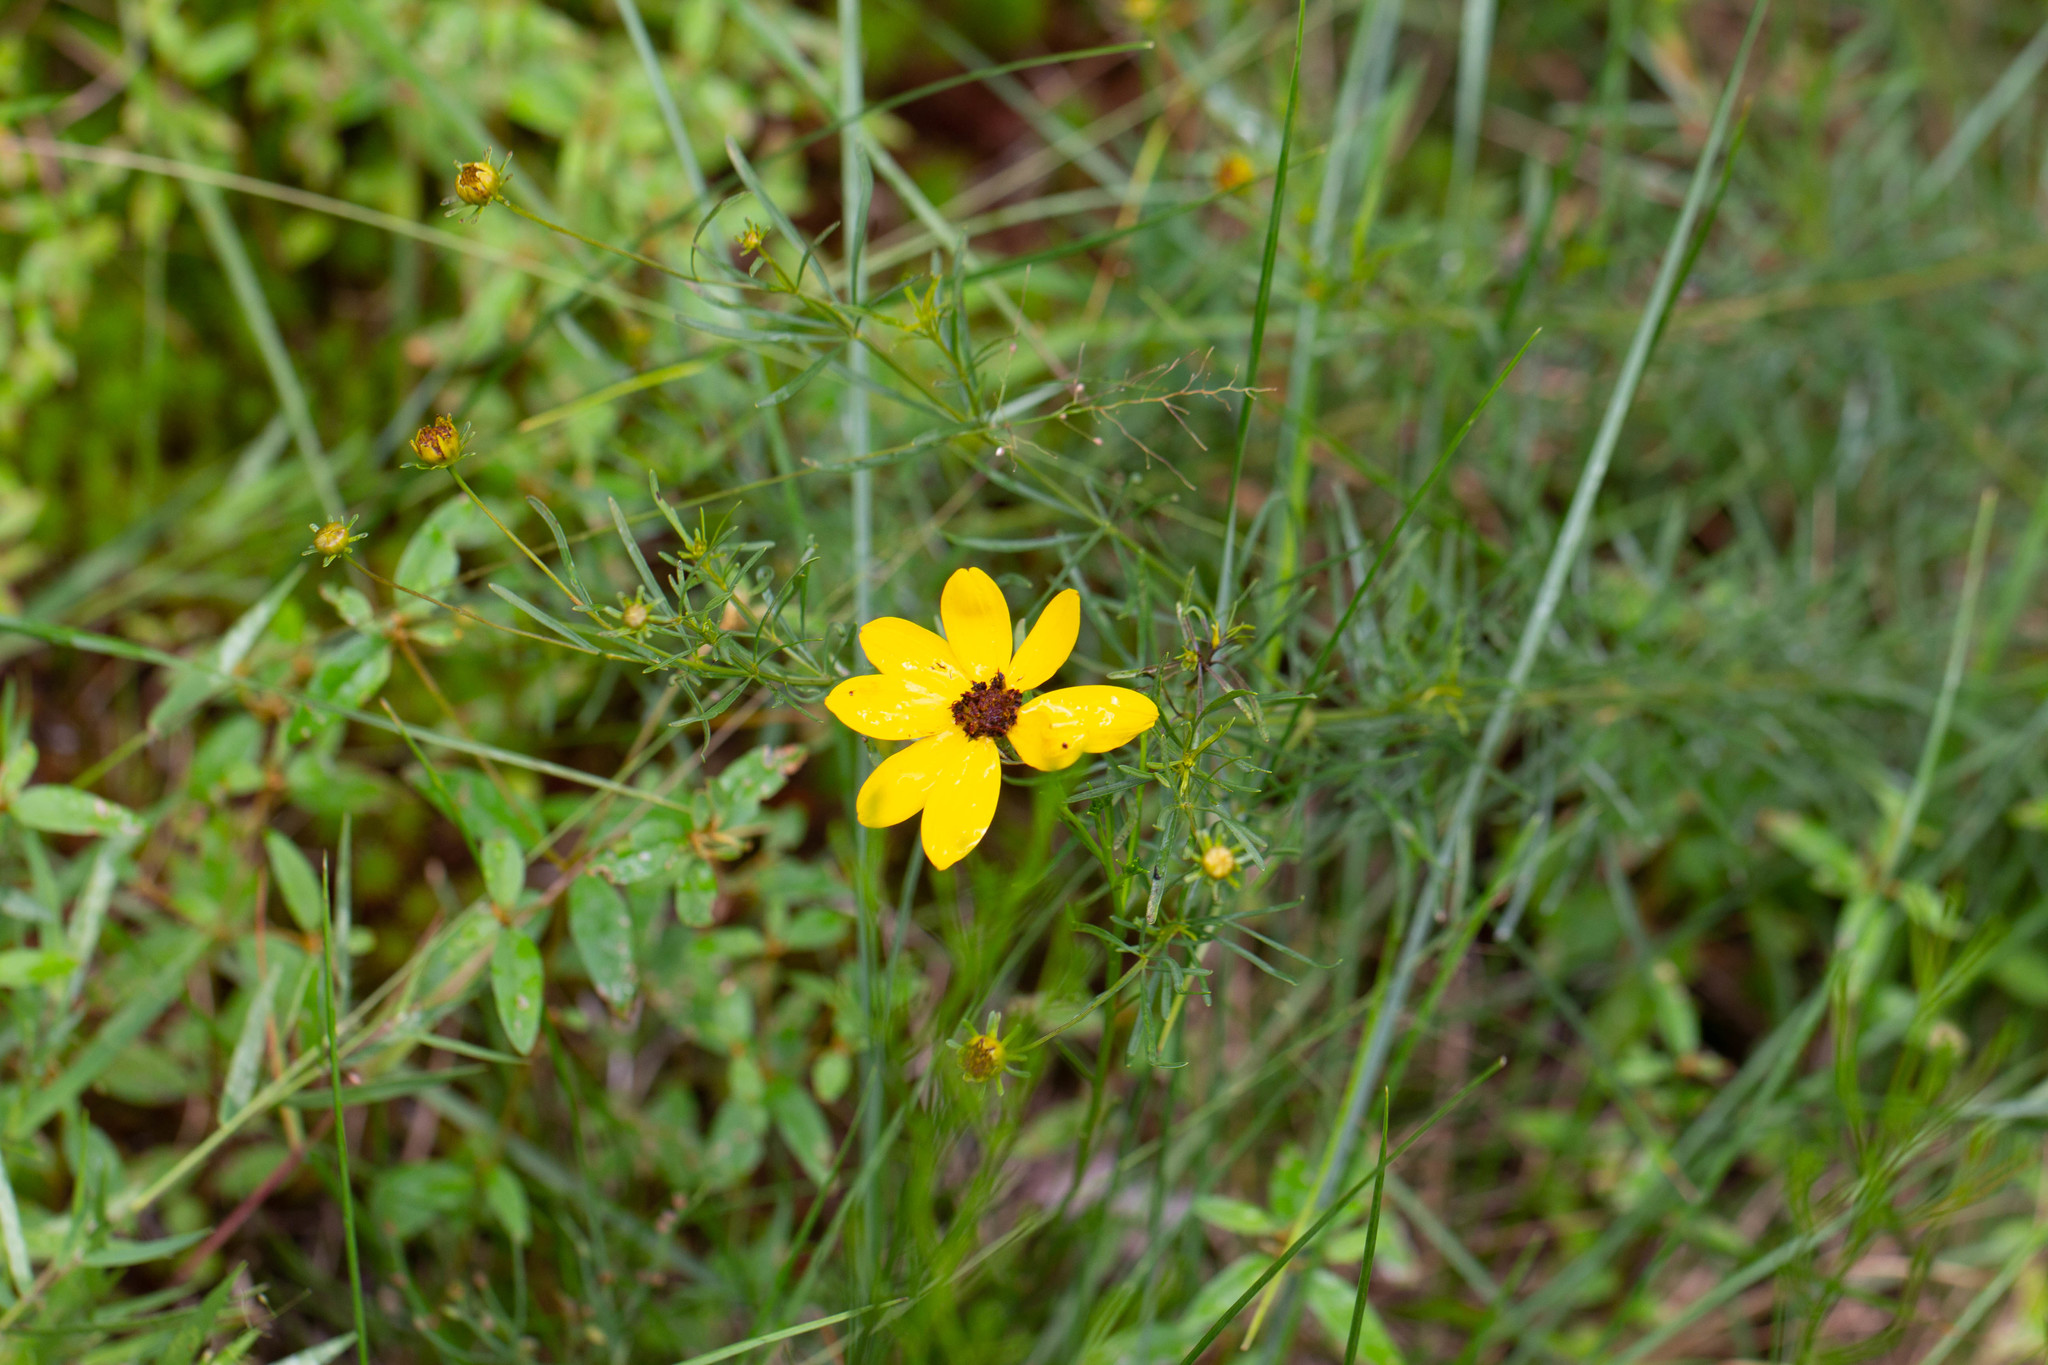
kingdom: Plantae
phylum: Tracheophyta
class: Magnoliopsida
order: Asterales
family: Asteraceae
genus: Coreopsis
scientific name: Coreopsis pulchra
